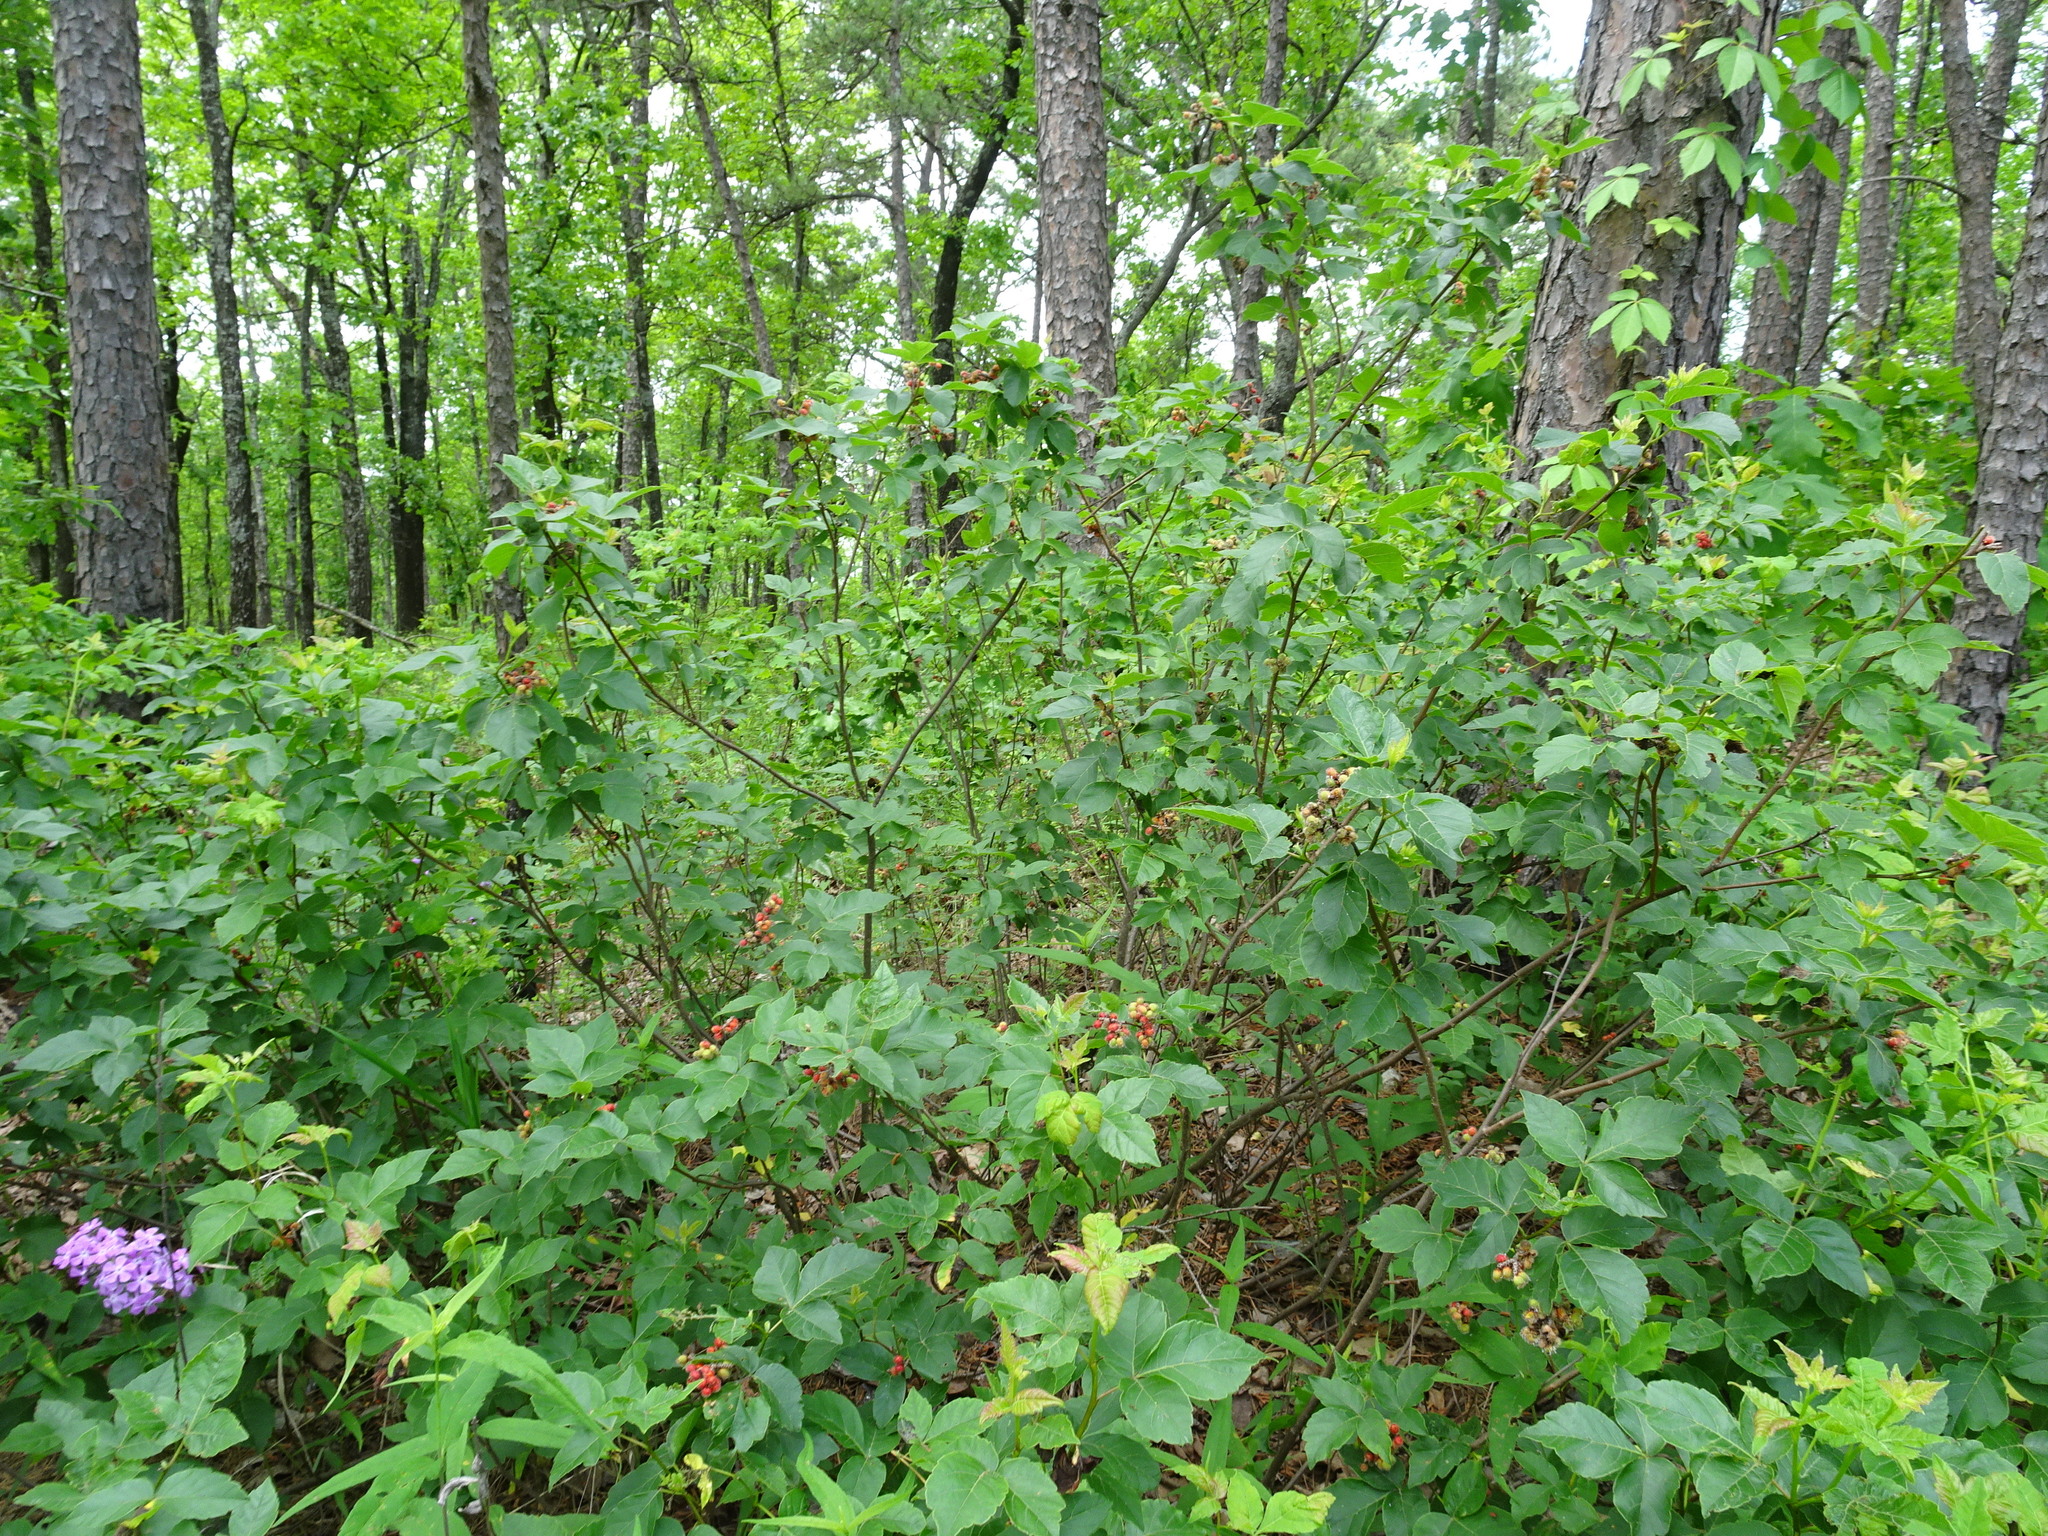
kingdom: Plantae
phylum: Tracheophyta
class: Magnoliopsida
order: Sapindales
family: Anacardiaceae
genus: Rhus
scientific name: Rhus aromatica
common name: Aromatic sumac
